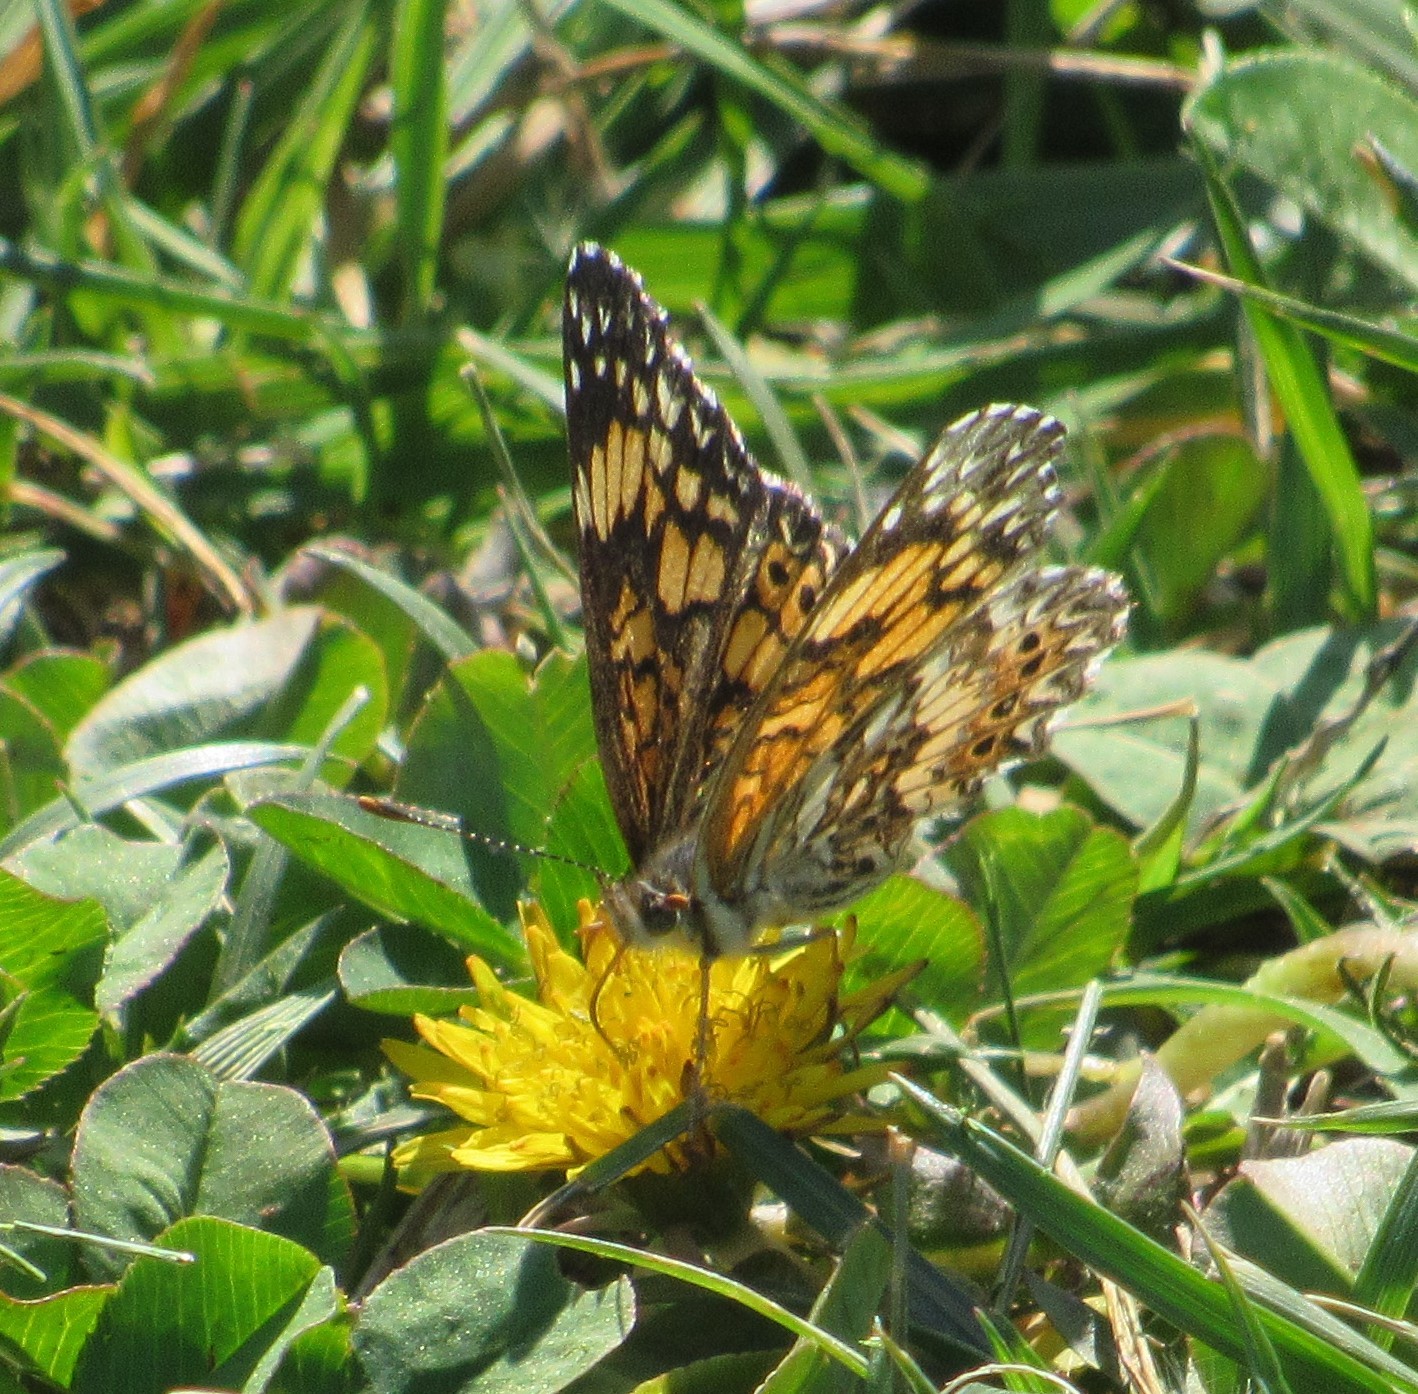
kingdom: Animalia
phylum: Arthropoda
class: Insecta
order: Lepidoptera
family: Nymphalidae
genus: Chlosyne
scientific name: Chlosyne gorgone
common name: Gorgone checkerspot
